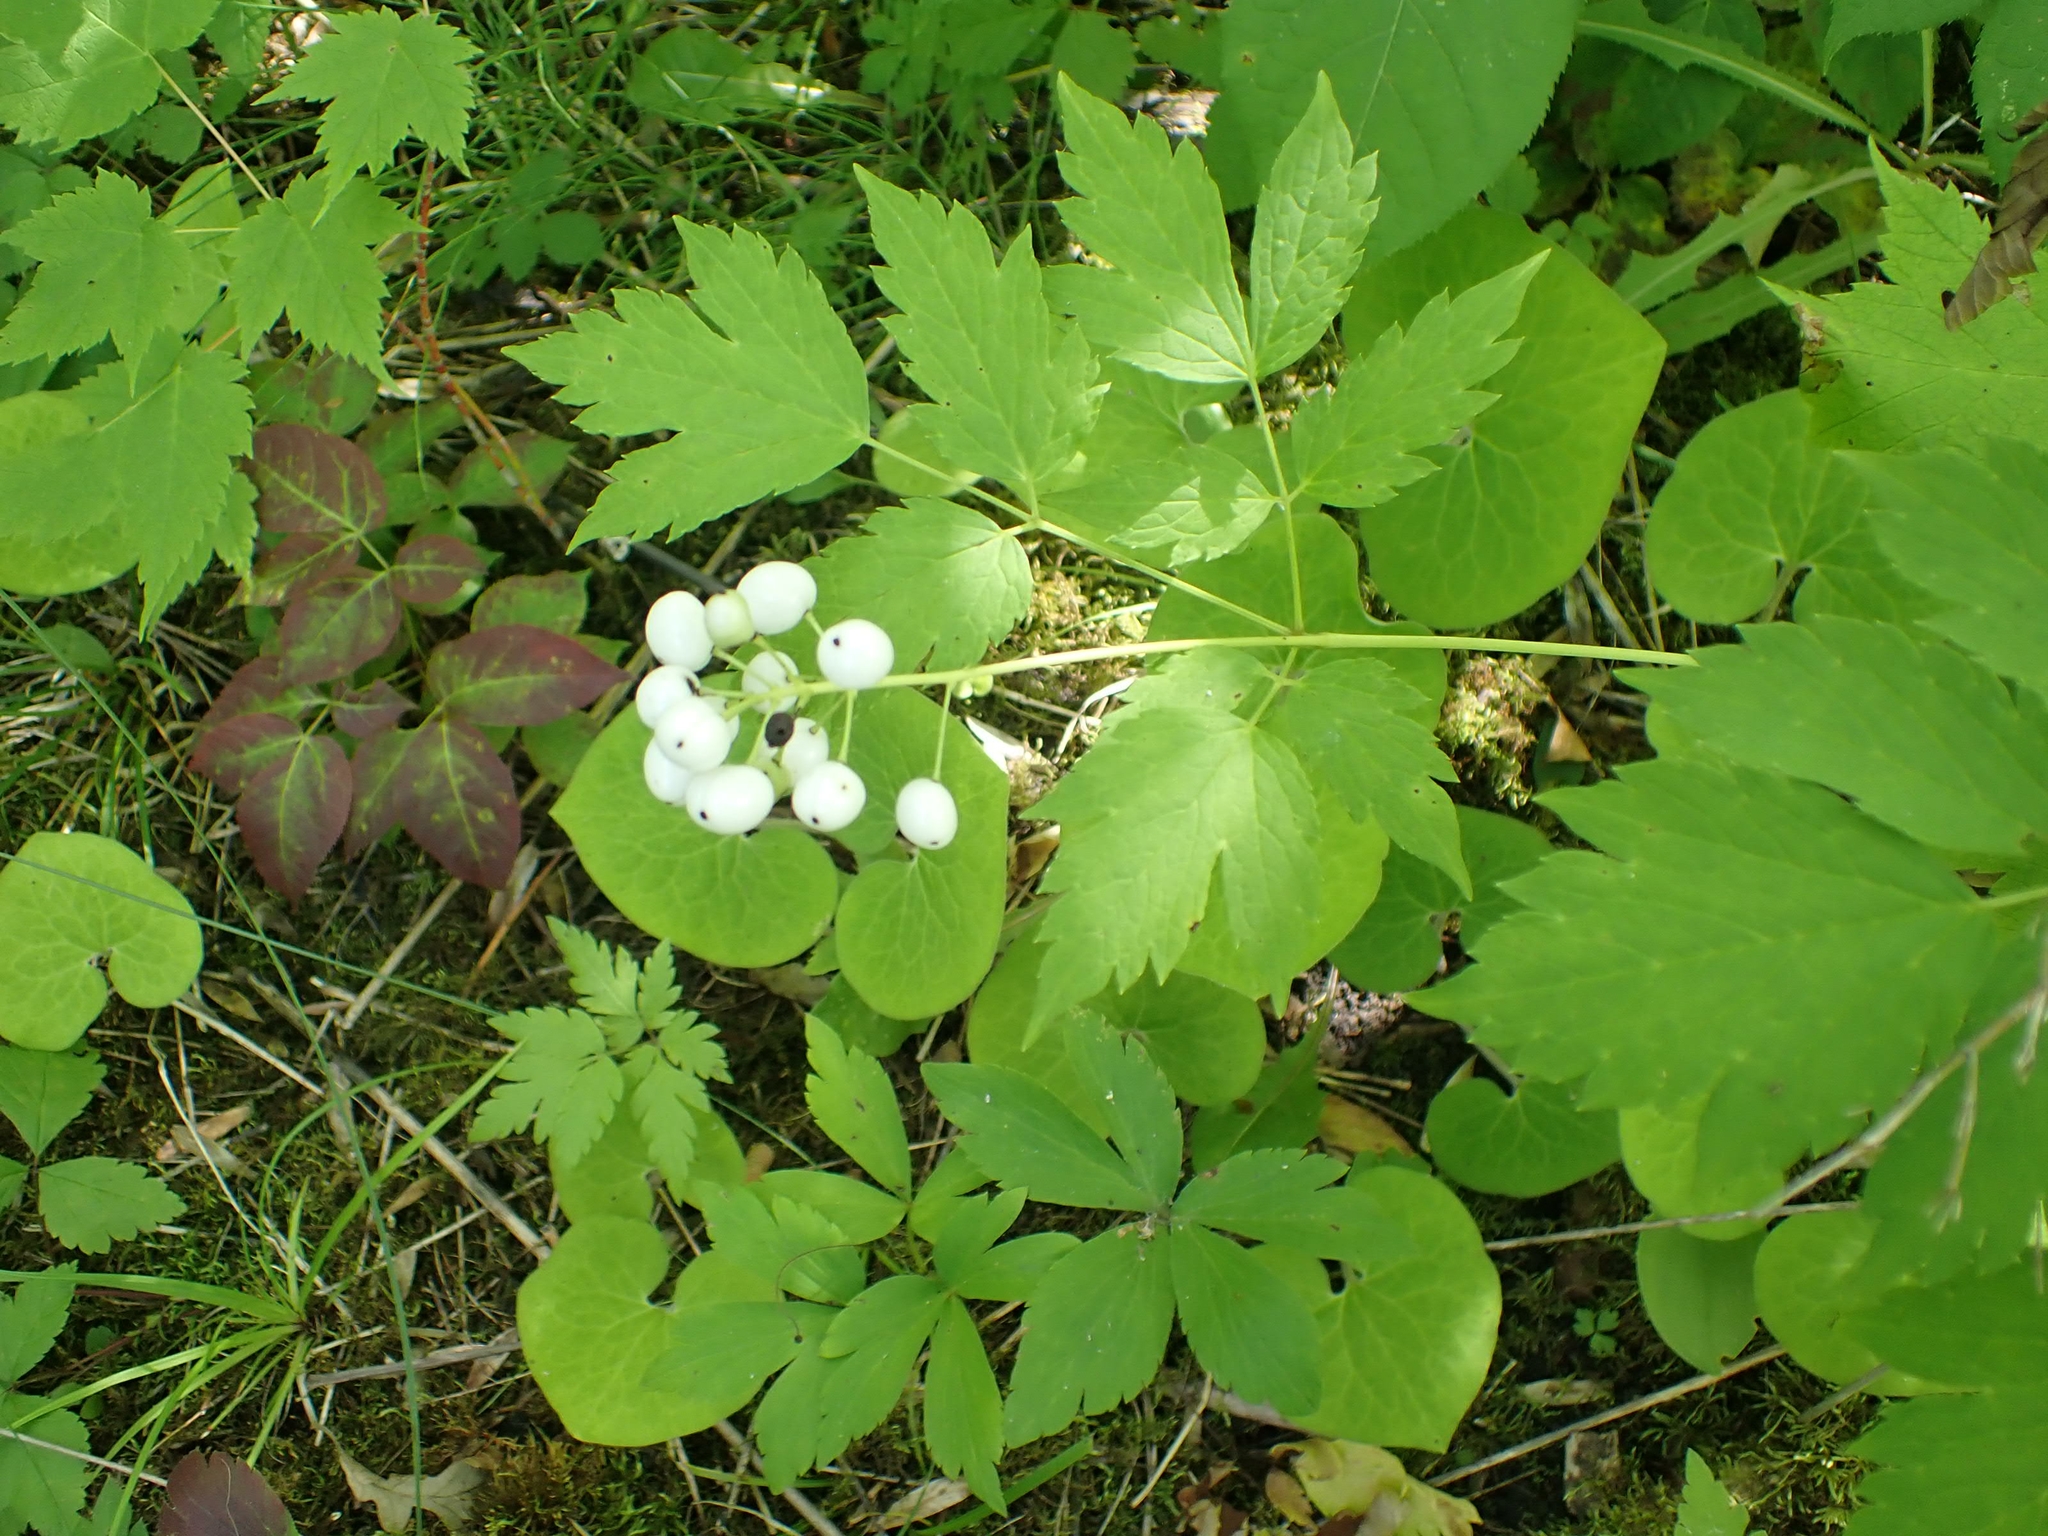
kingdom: Plantae
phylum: Tracheophyta
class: Magnoliopsida
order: Ranunculales
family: Ranunculaceae
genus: Actaea
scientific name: Actaea rubra
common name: Red baneberry
